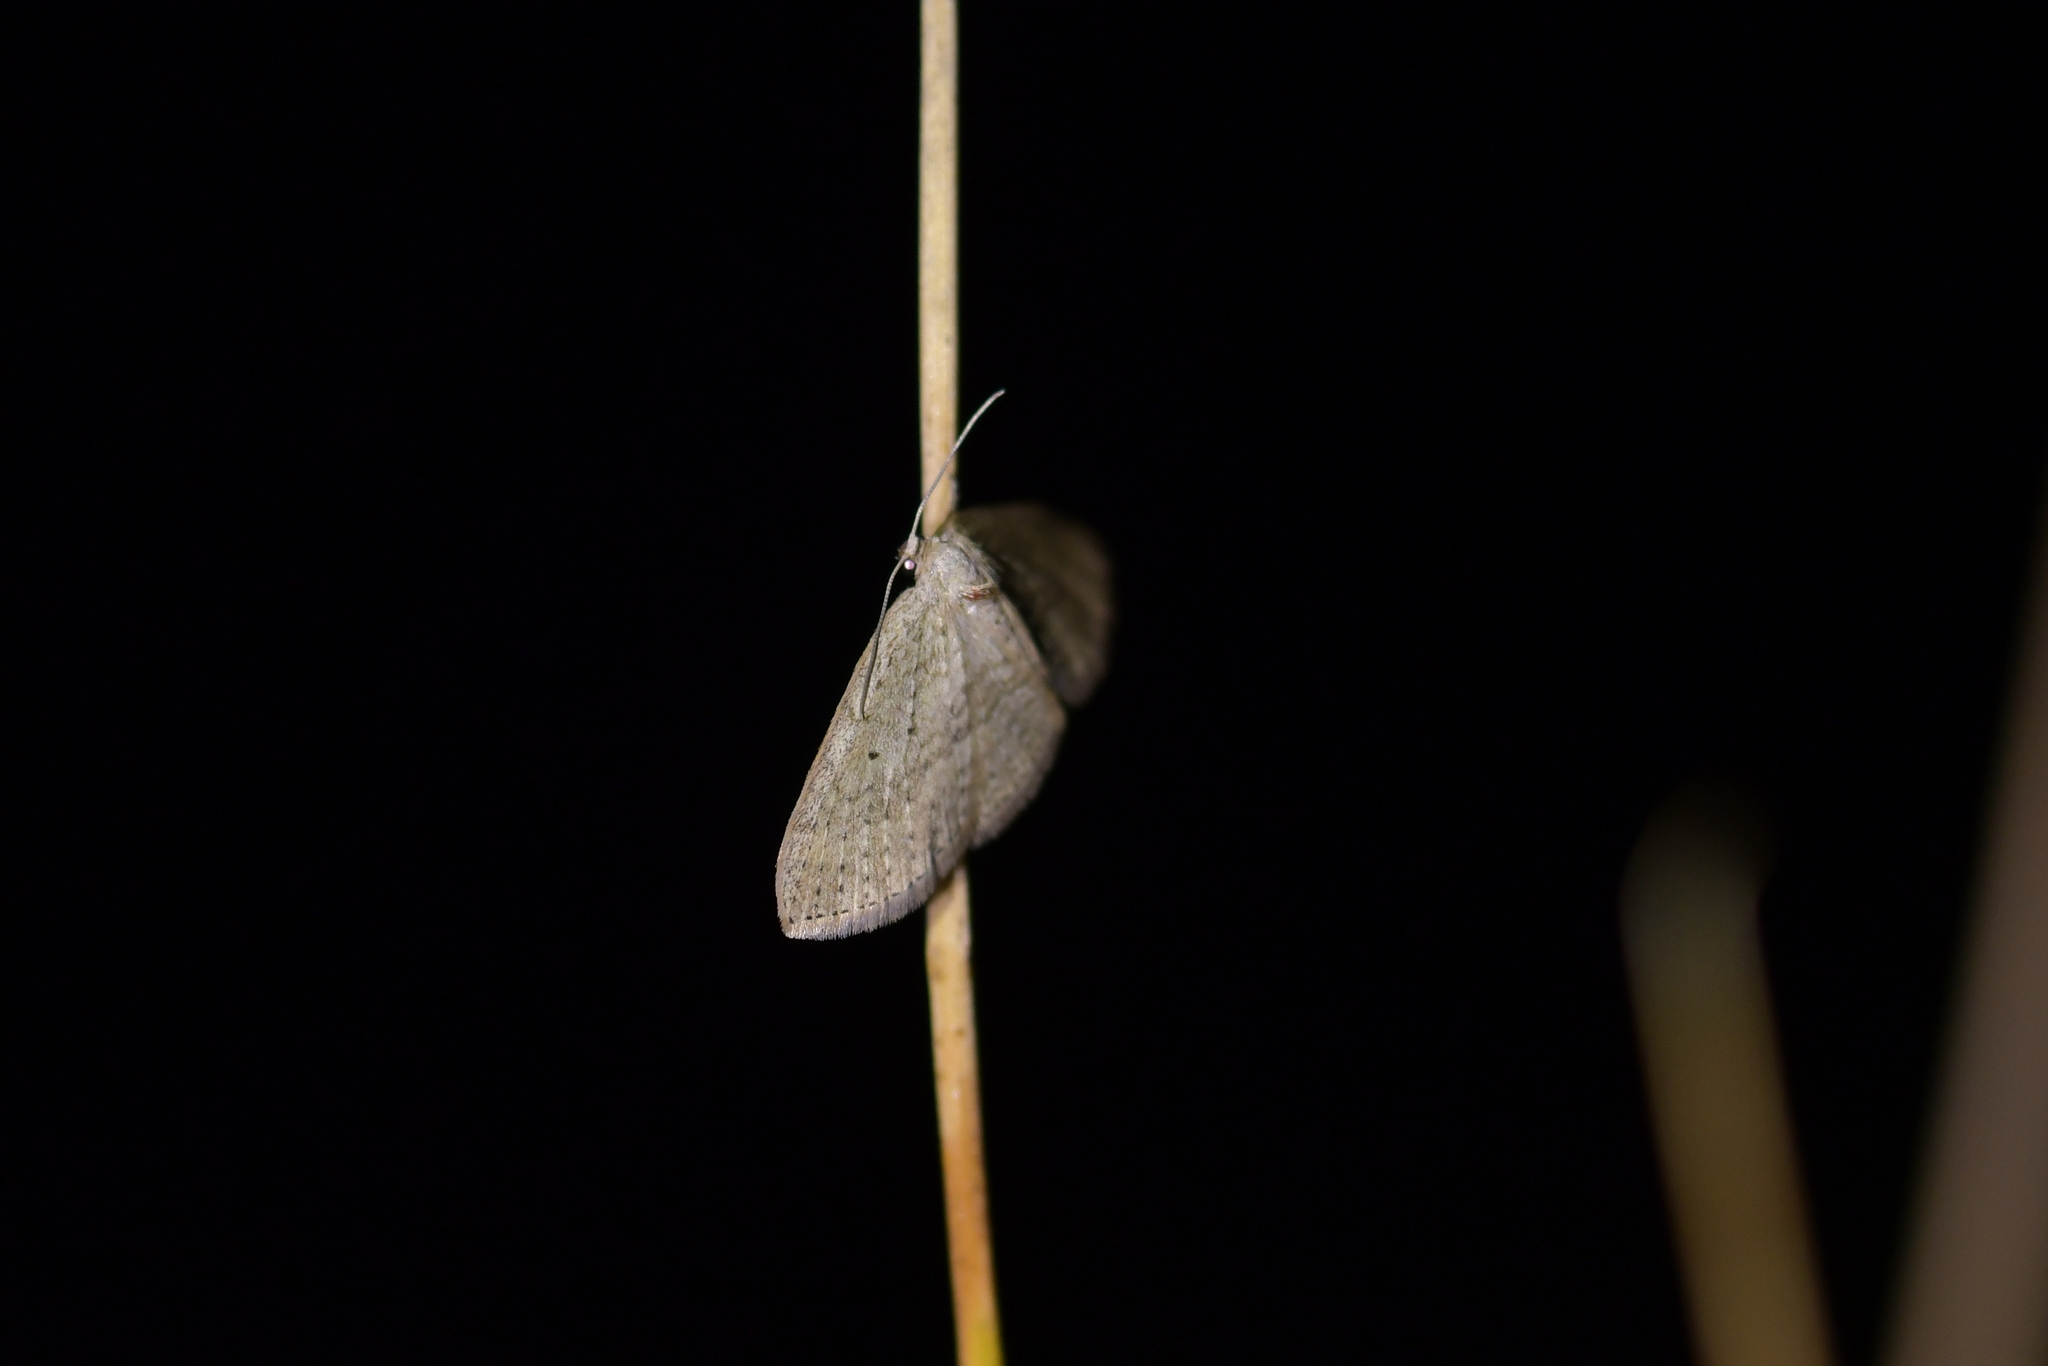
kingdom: Animalia
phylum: Arthropoda
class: Insecta
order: Lepidoptera
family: Geometridae
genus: Poecilasthena
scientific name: Poecilasthena schistaria
